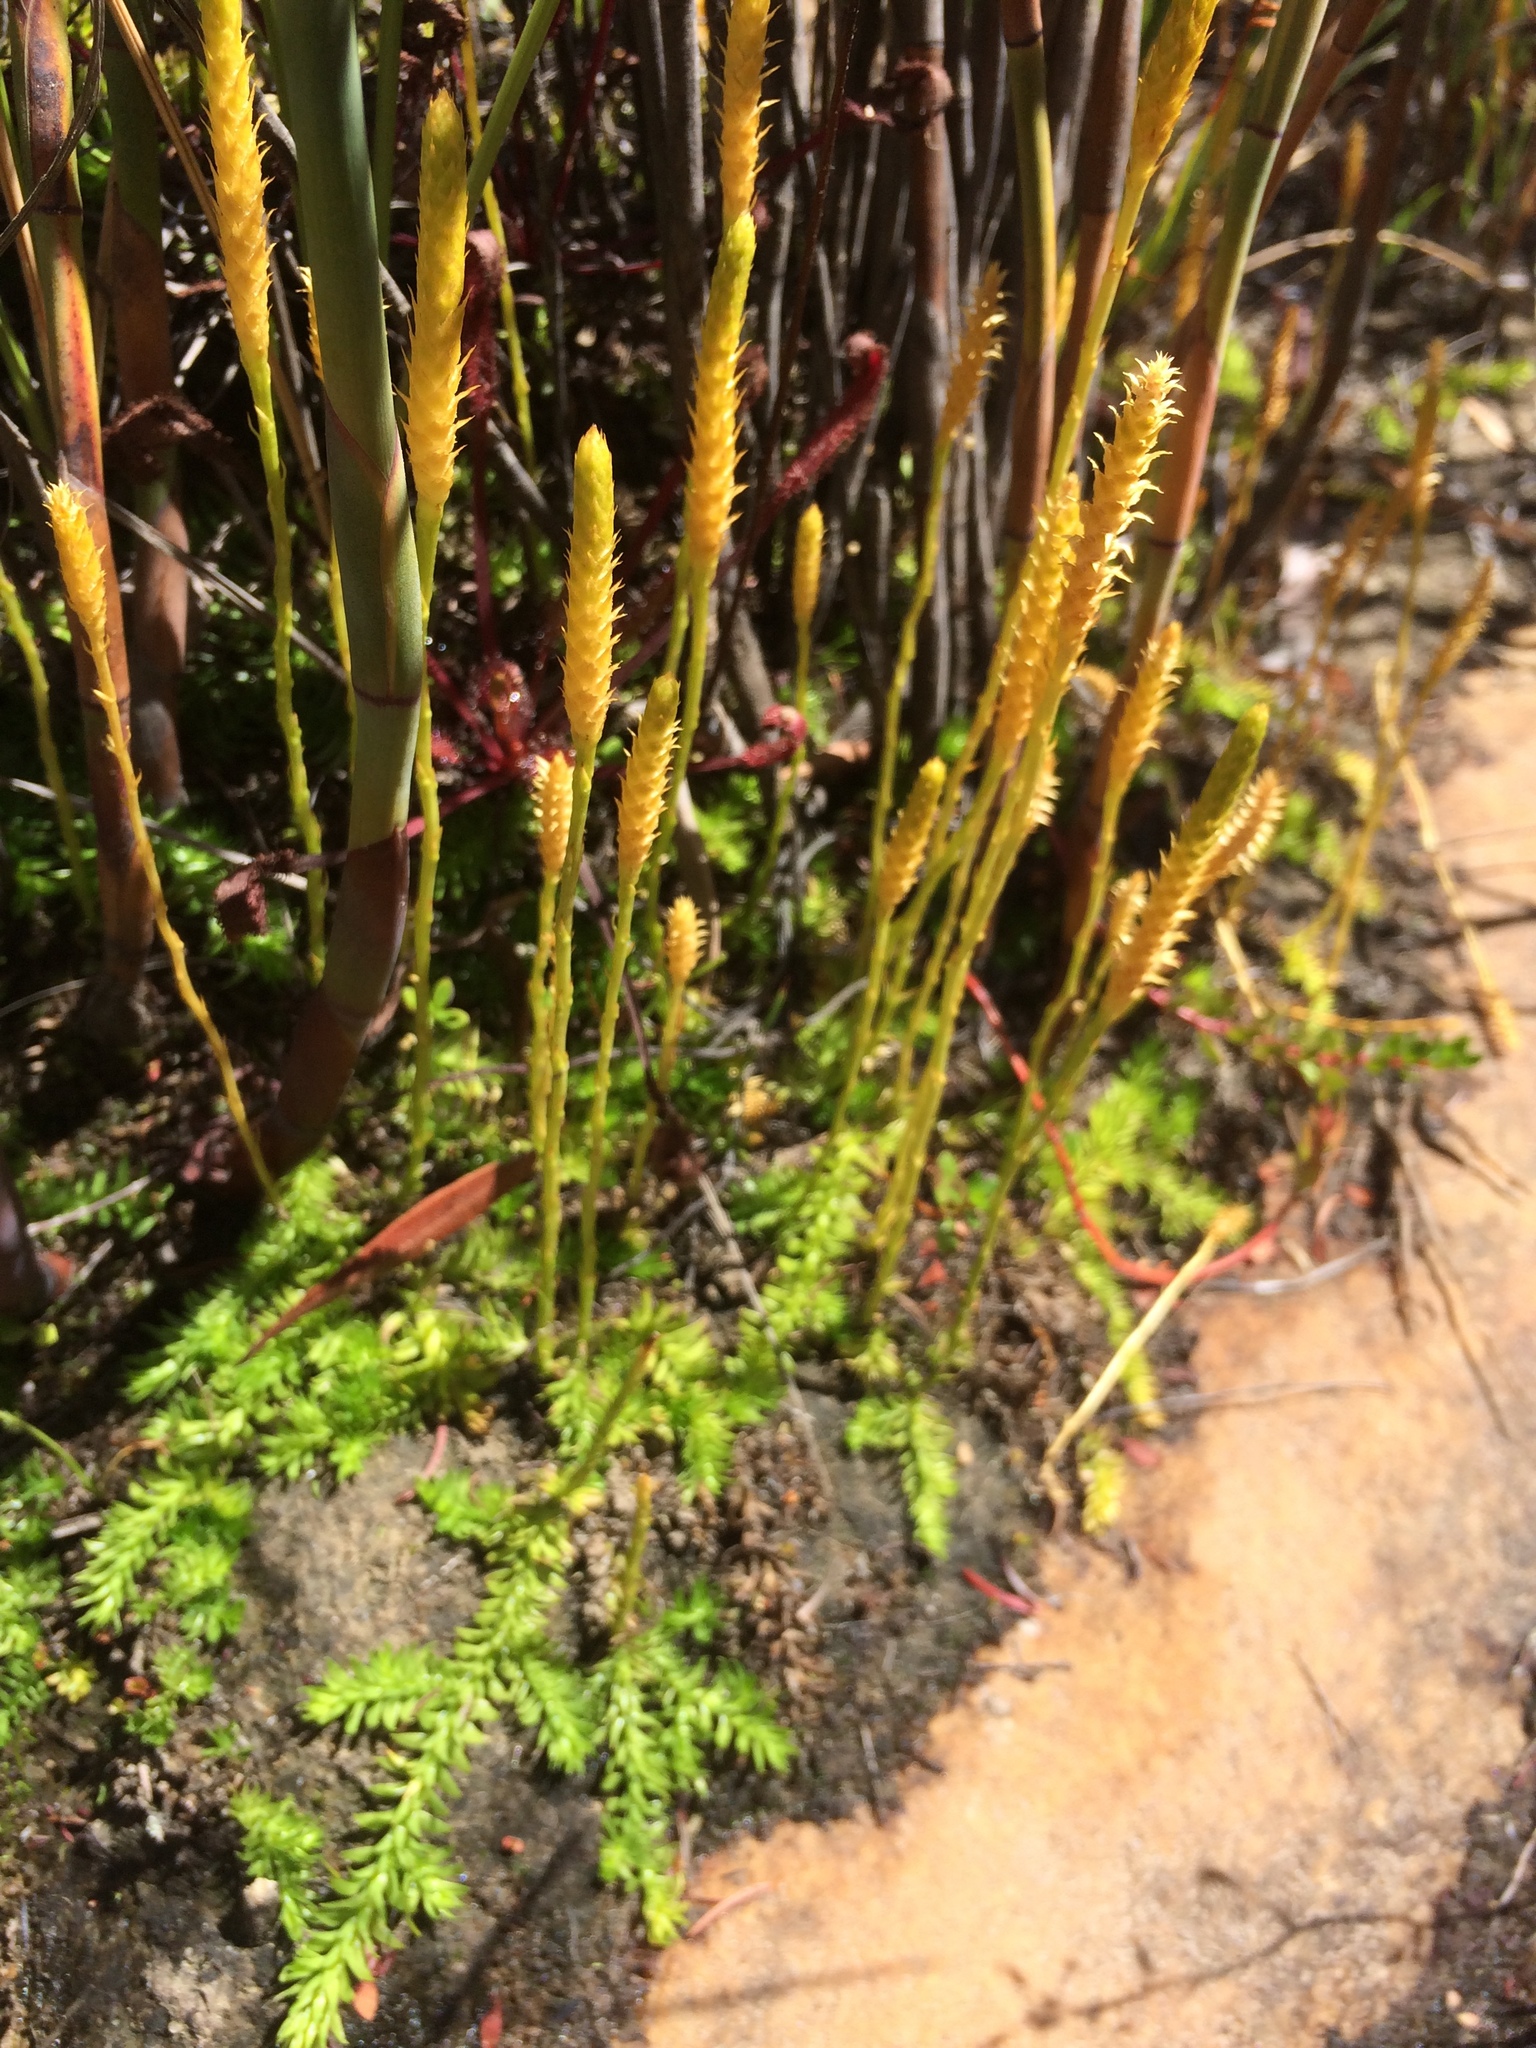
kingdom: Plantae
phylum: Tracheophyta
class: Lycopodiopsida
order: Lycopodiales
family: Lycopodiaceae
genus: Pseudolycopodiella
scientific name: Pseudolycopodiella caroliniana
